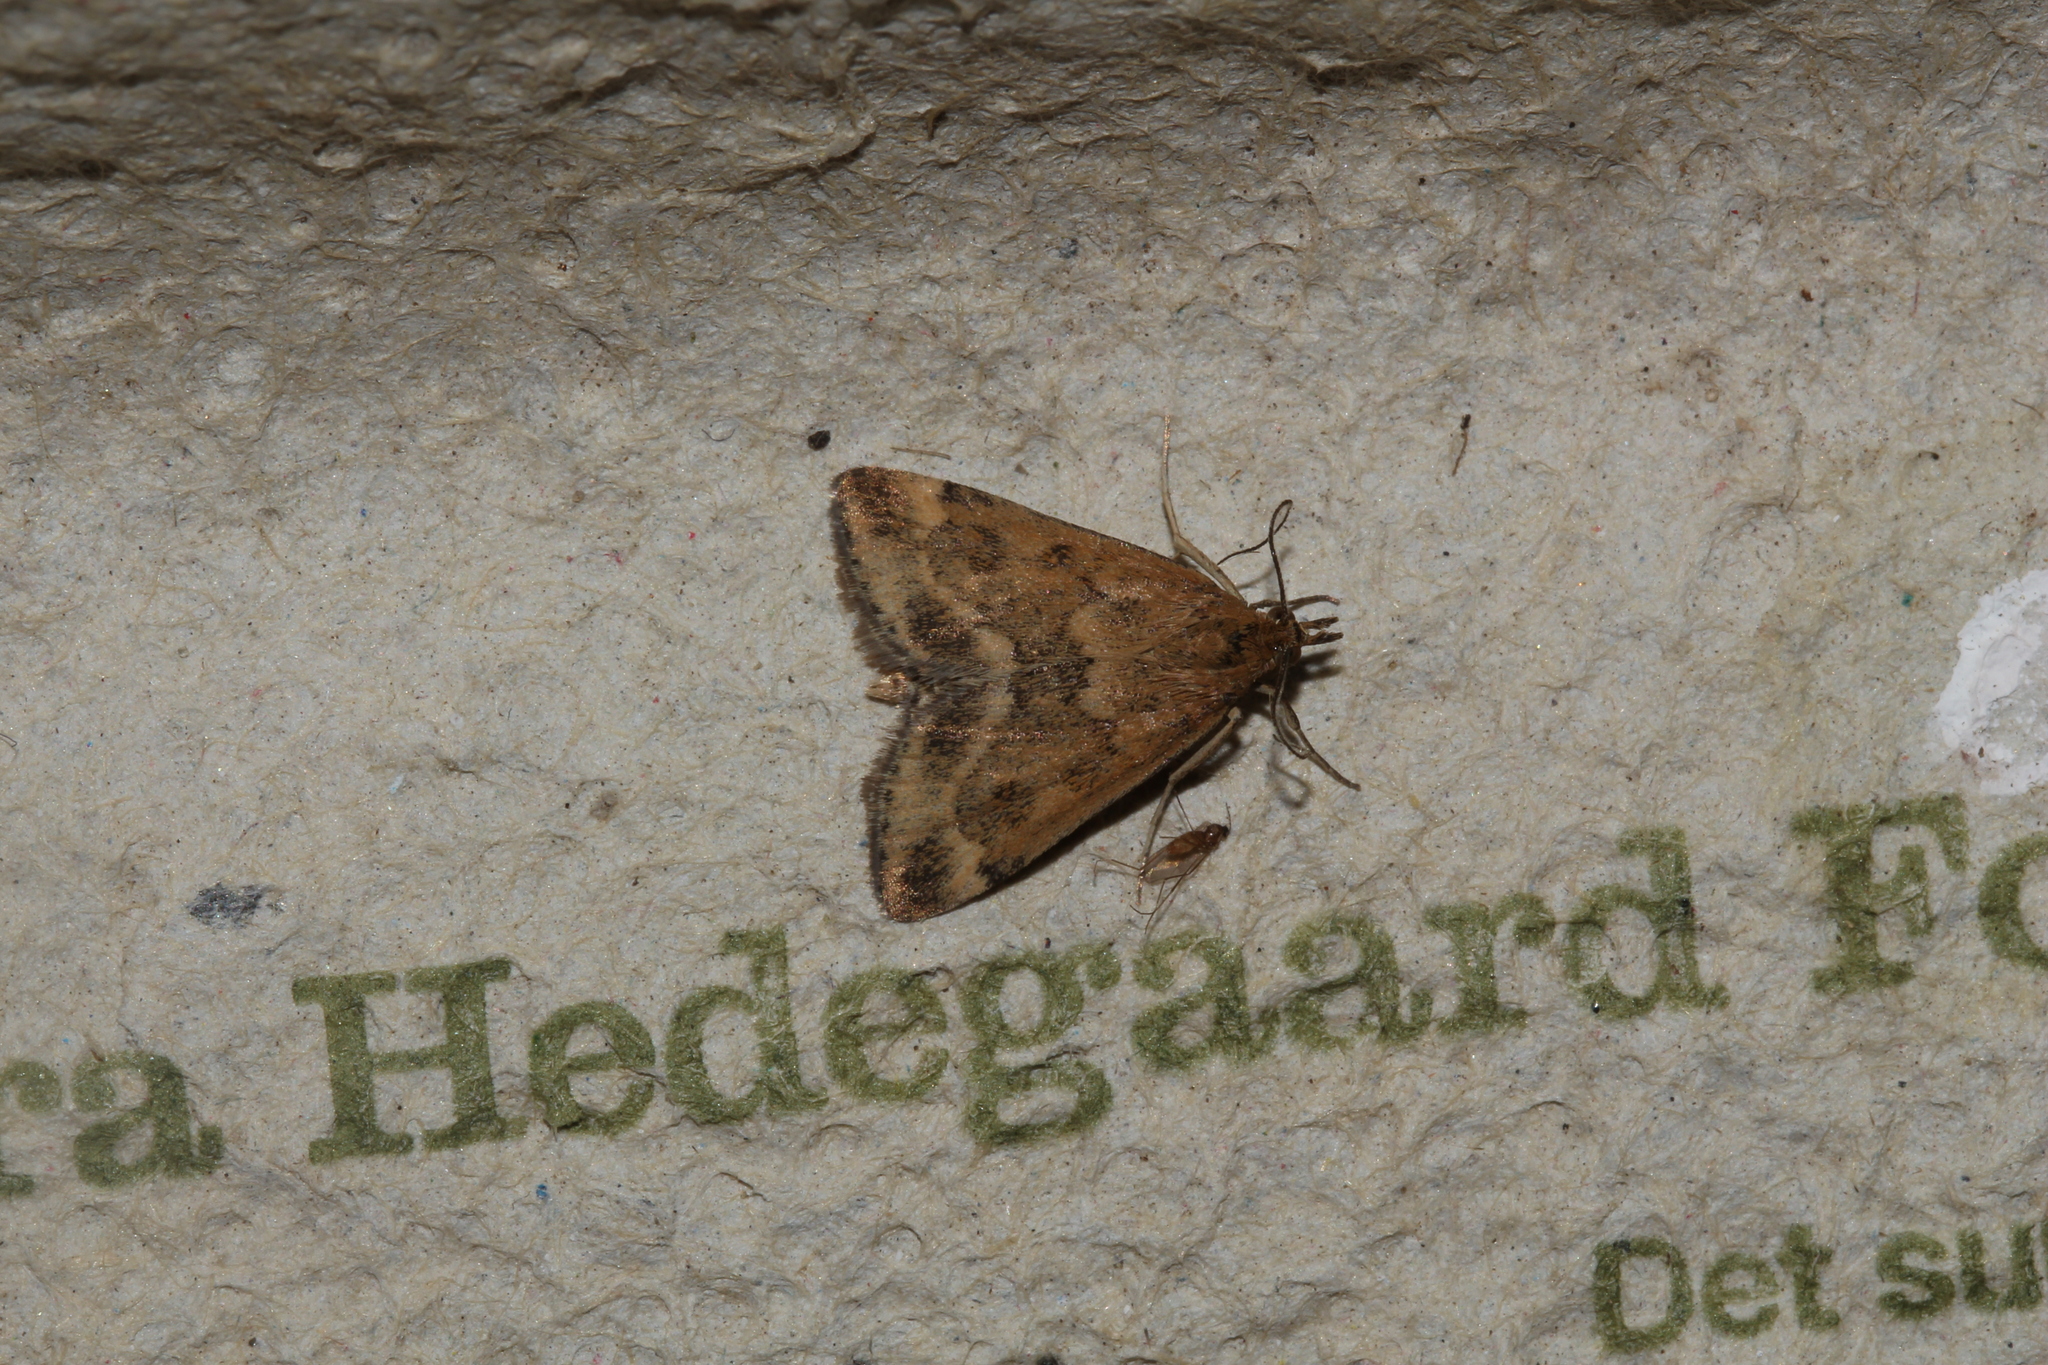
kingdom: Animalia
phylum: Arthropoda
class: Insecta
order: Lepidoptera
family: Crambidae
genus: Pyrausta
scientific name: Pyrausta despicata
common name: Straw-barred pearl
